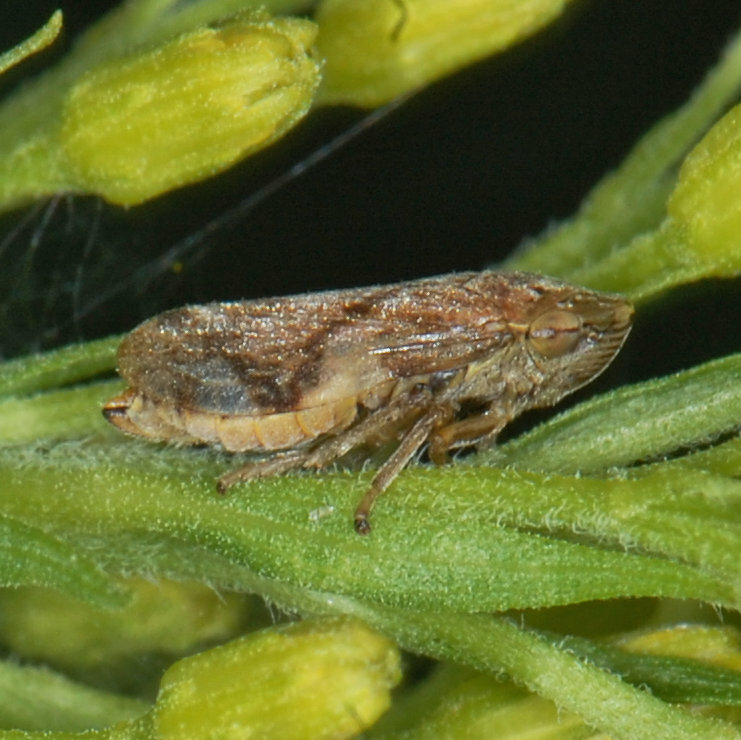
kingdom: Animalia
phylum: Arthropoda
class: Insecta
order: Hemiptera
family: Aphrophoridae
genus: Philaenus
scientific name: Philaenus spumarius
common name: Meadow spittlebug
